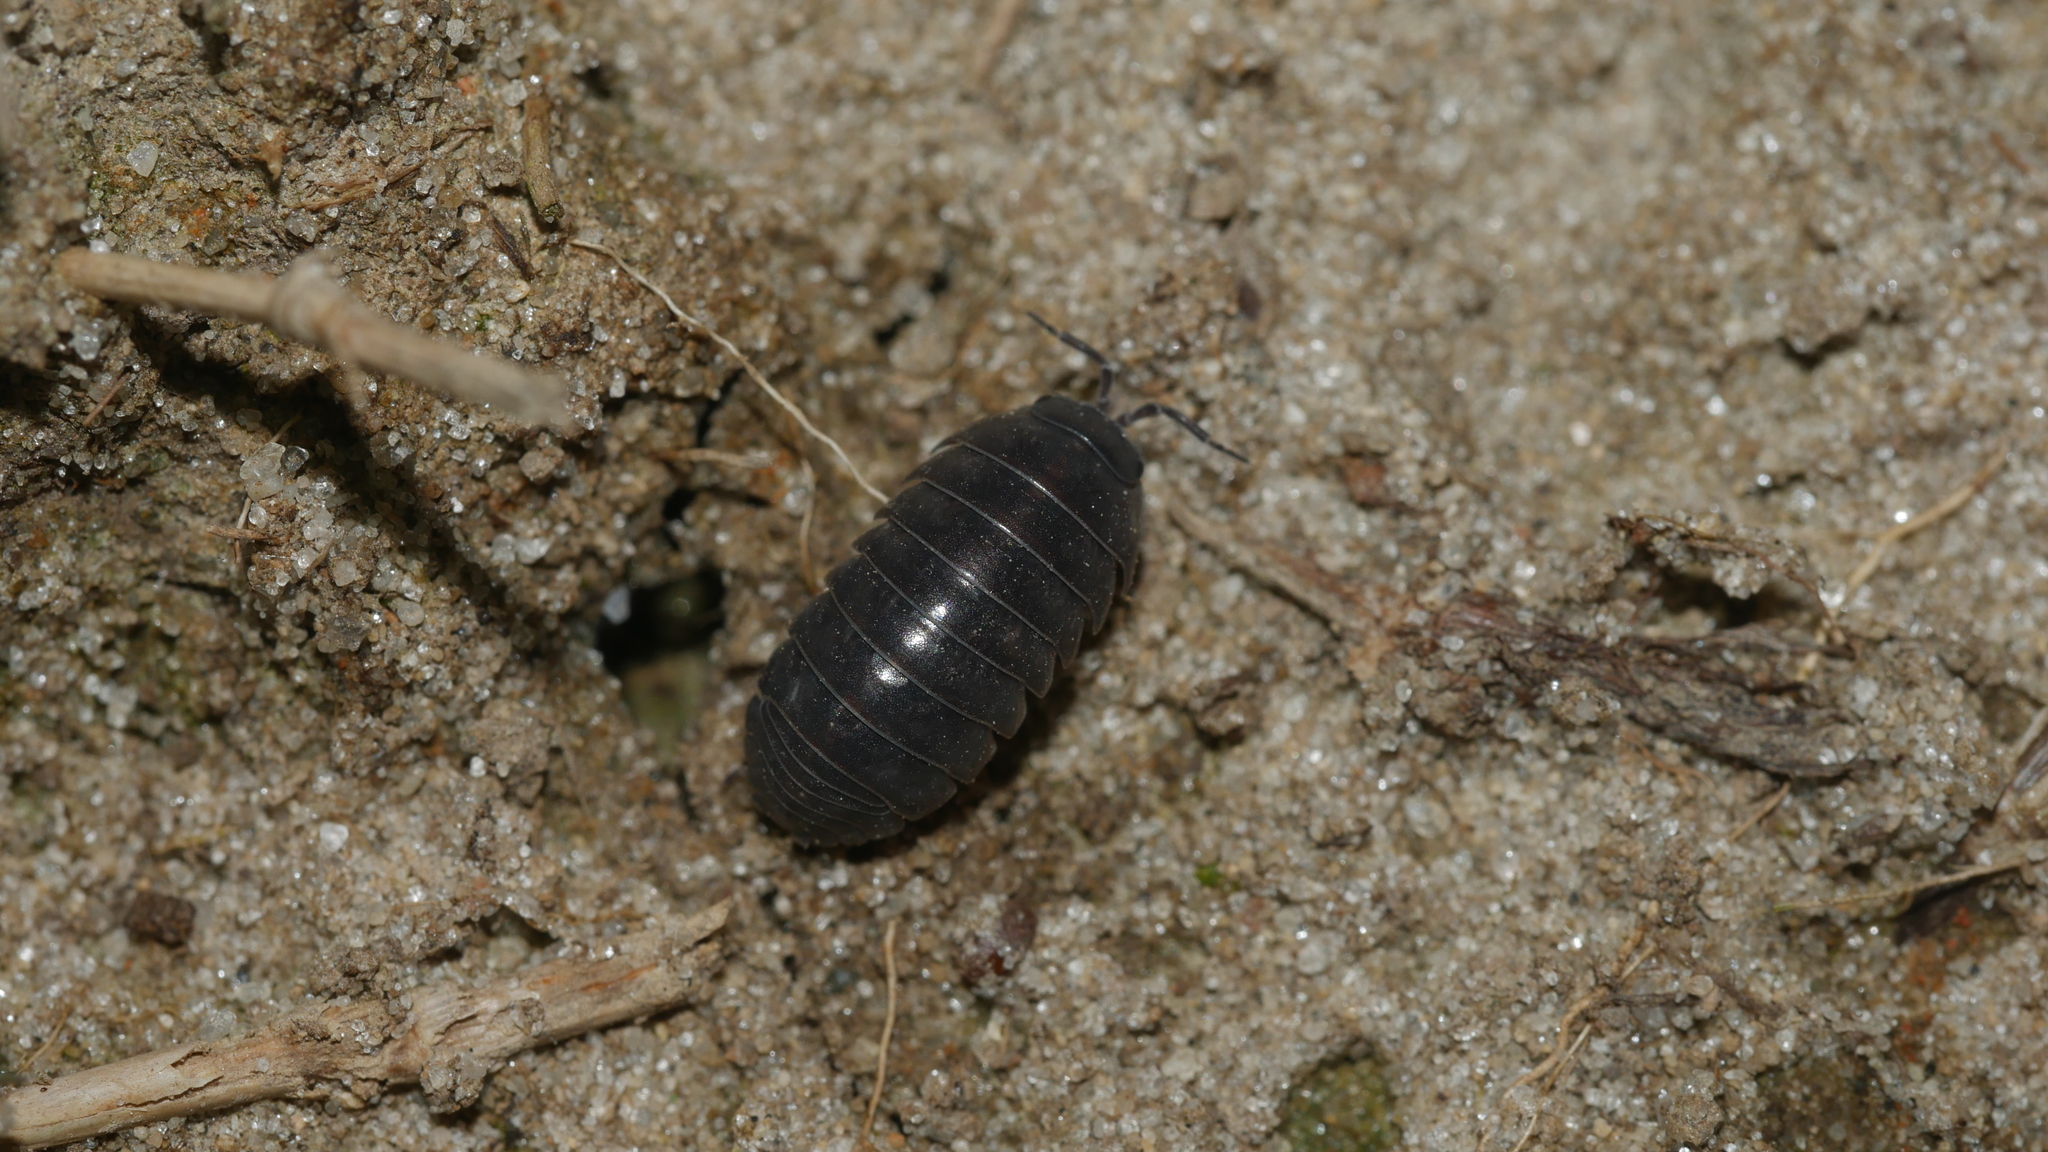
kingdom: Animalia
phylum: Arthropoda
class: Malacostraca
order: Isopoda
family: Armadillidiidae
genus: Armadillidium
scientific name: Armadillidium vulgare
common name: Common pill woodlouse
